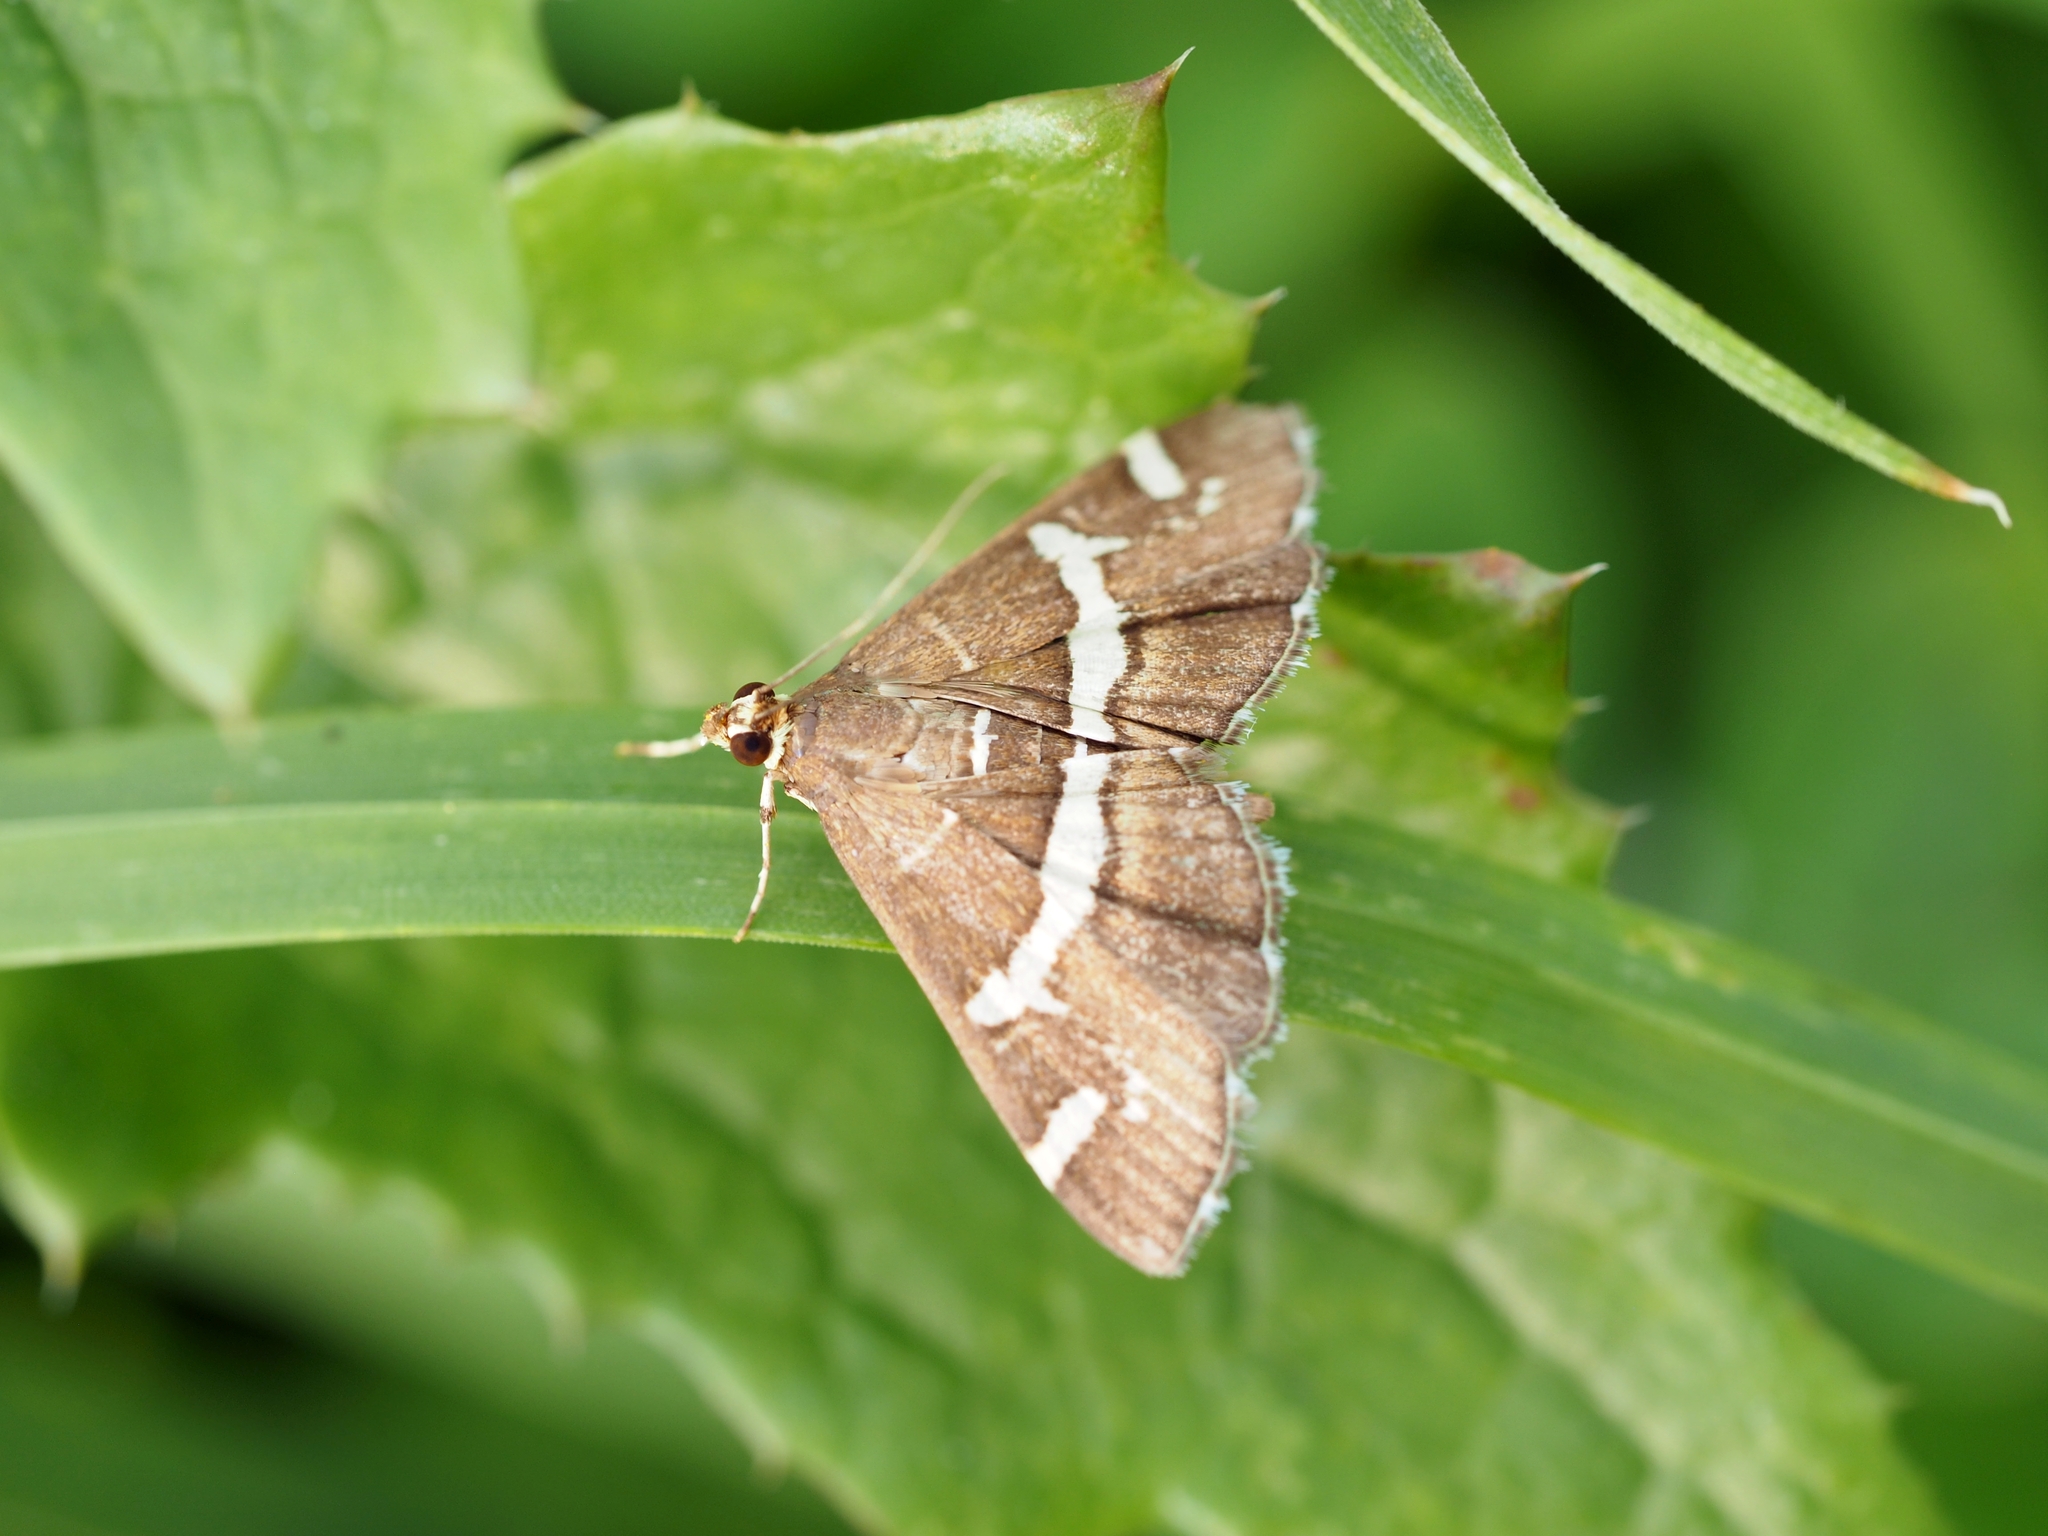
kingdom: Animalia
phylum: Arthropoda
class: Insecta
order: Lepidoptera
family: Crambidae
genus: Spoladea
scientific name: Spoladea recurvalis
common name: Beet webworm moth
